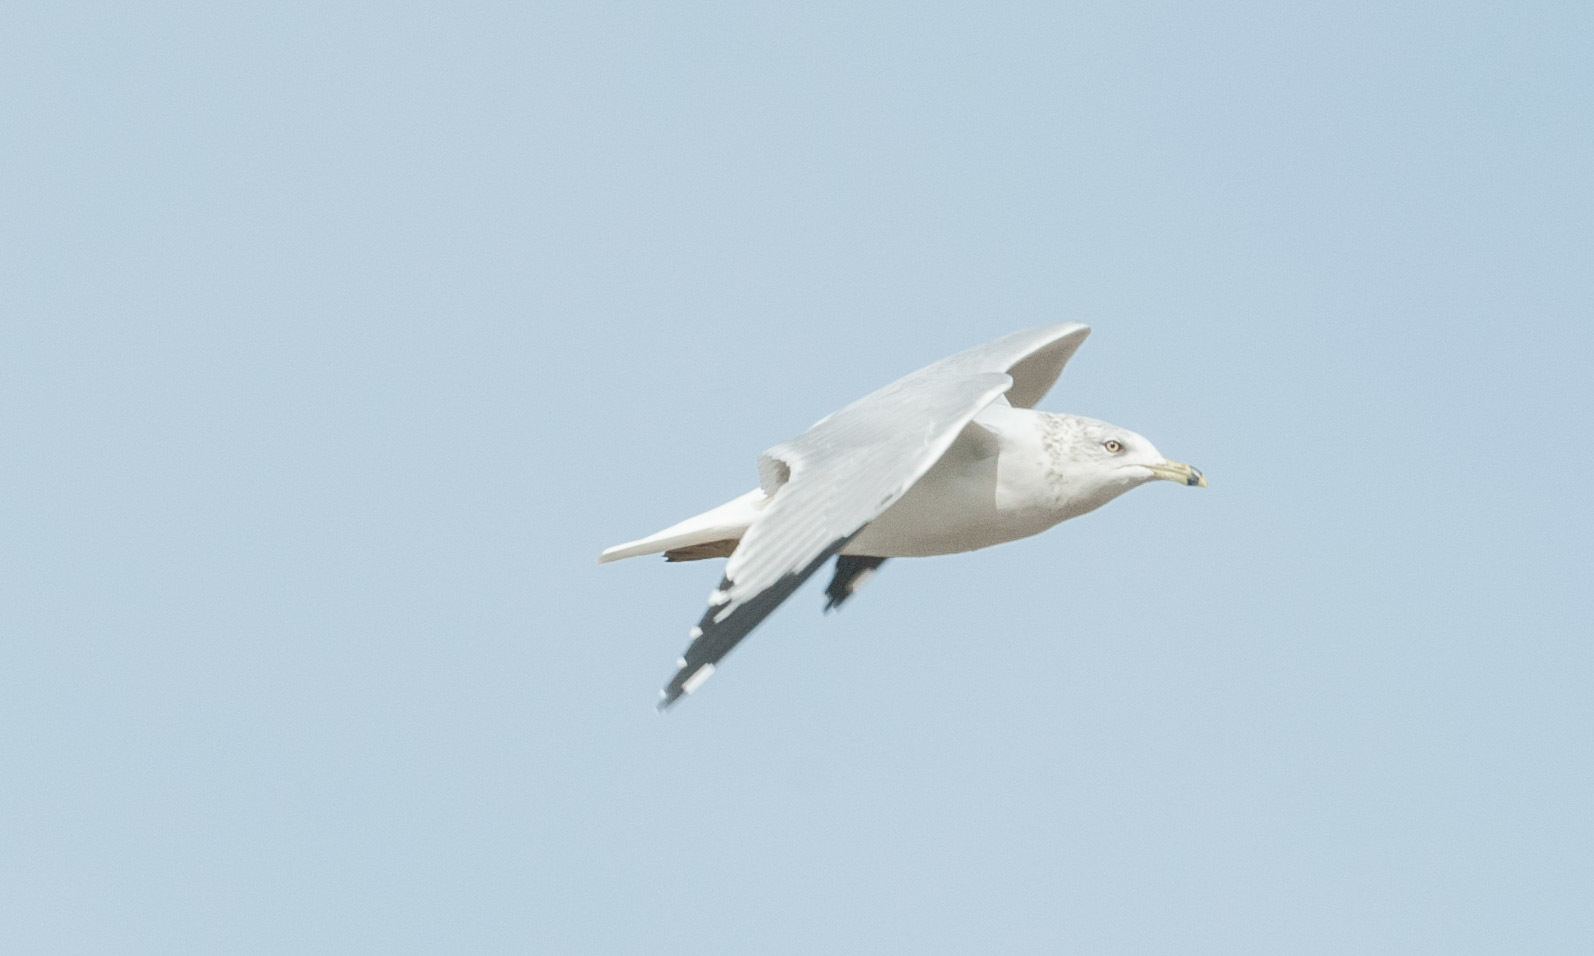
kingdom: Animalia
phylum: Chordata
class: Aves
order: Charadriiformes
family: Laridae
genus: Larus
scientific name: Larus delawarensis
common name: Ring-billed gull
